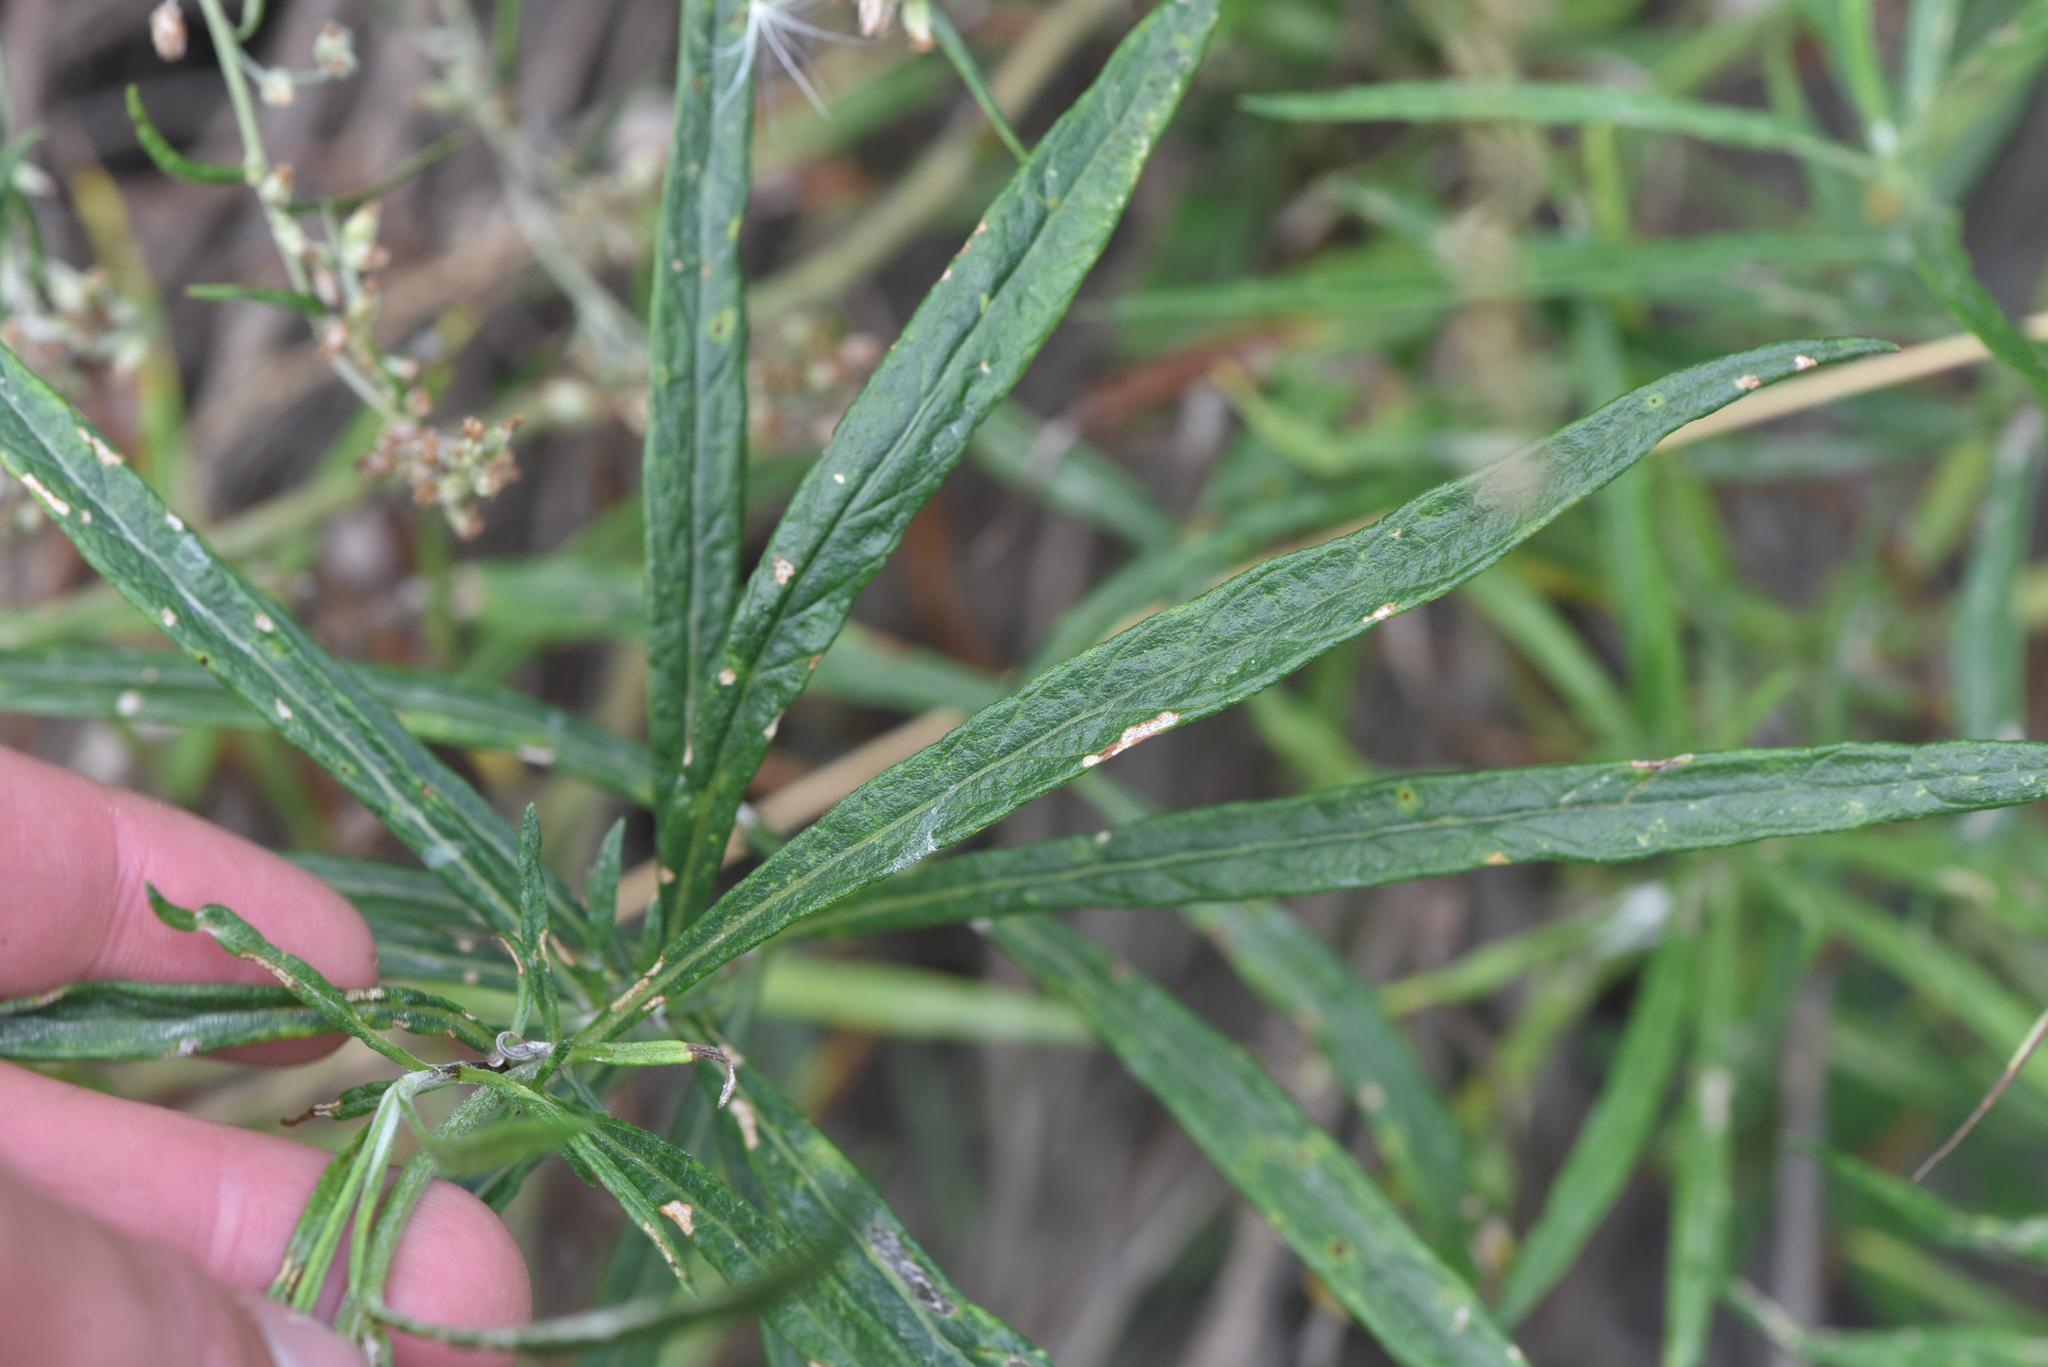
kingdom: Plantae
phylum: Tracheophyta
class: Magnoliopsida
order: Asterales
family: Asteraceae
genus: Artemisia
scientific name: Artemisia longifolia
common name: Long-leaved mugwort
